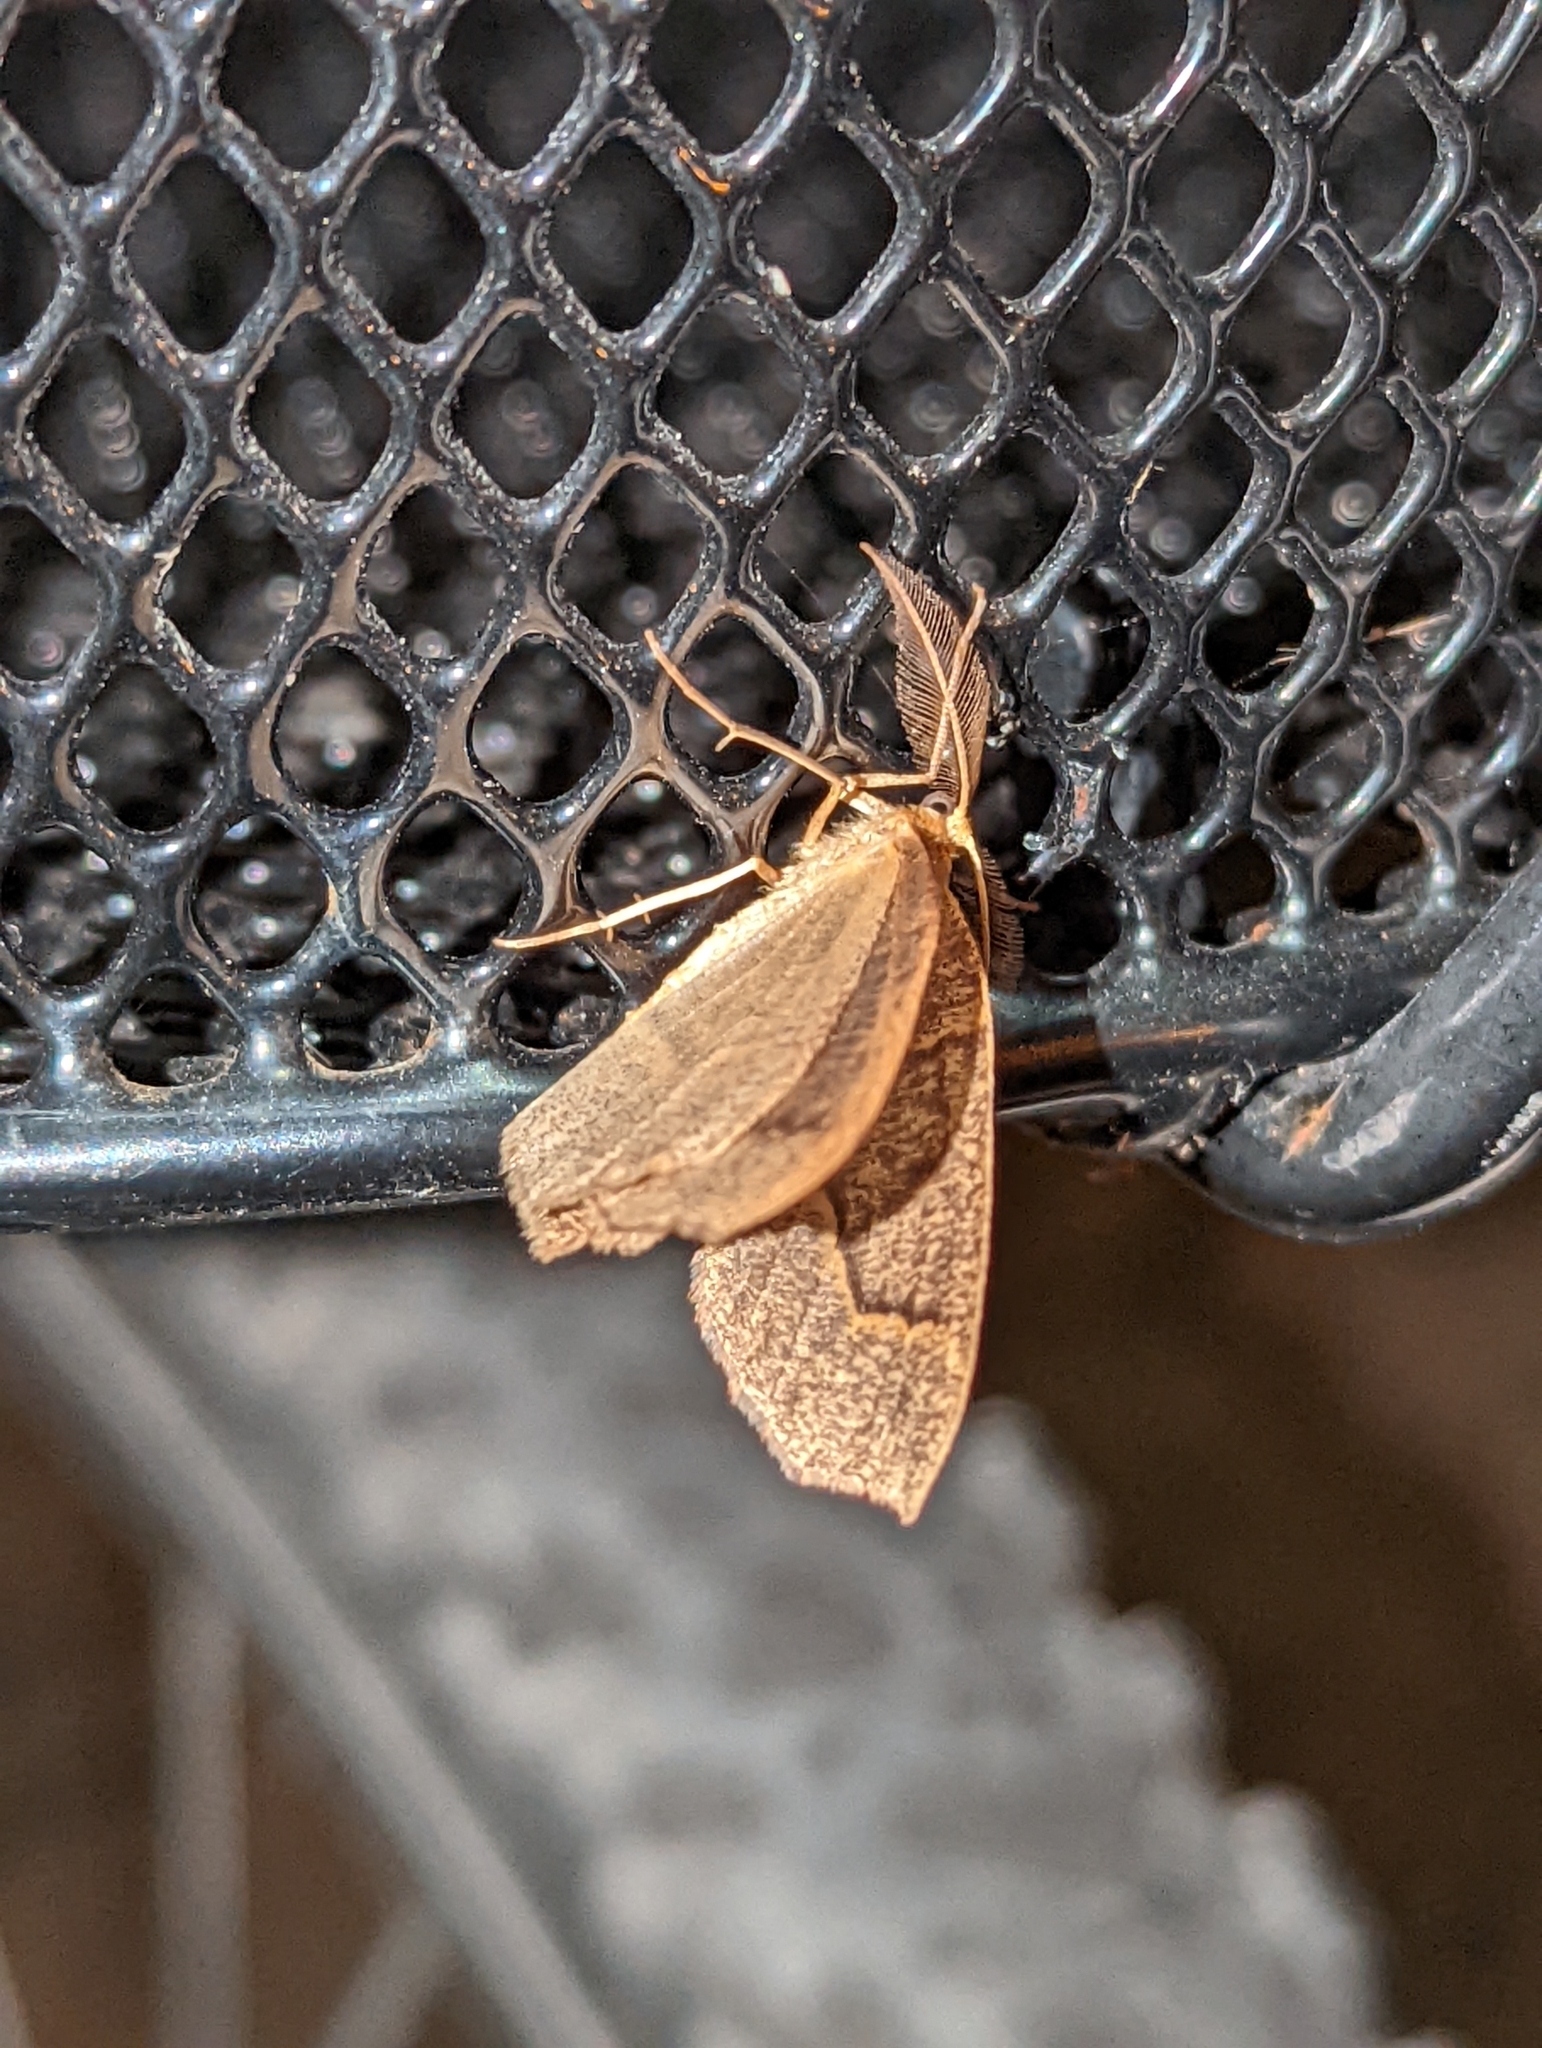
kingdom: Animalia
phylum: Arthropoda
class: Insecta
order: Lepidoptera
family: Geometridae
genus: Lambdina
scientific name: Lambdina fiscellaria
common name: Hemlock looper
